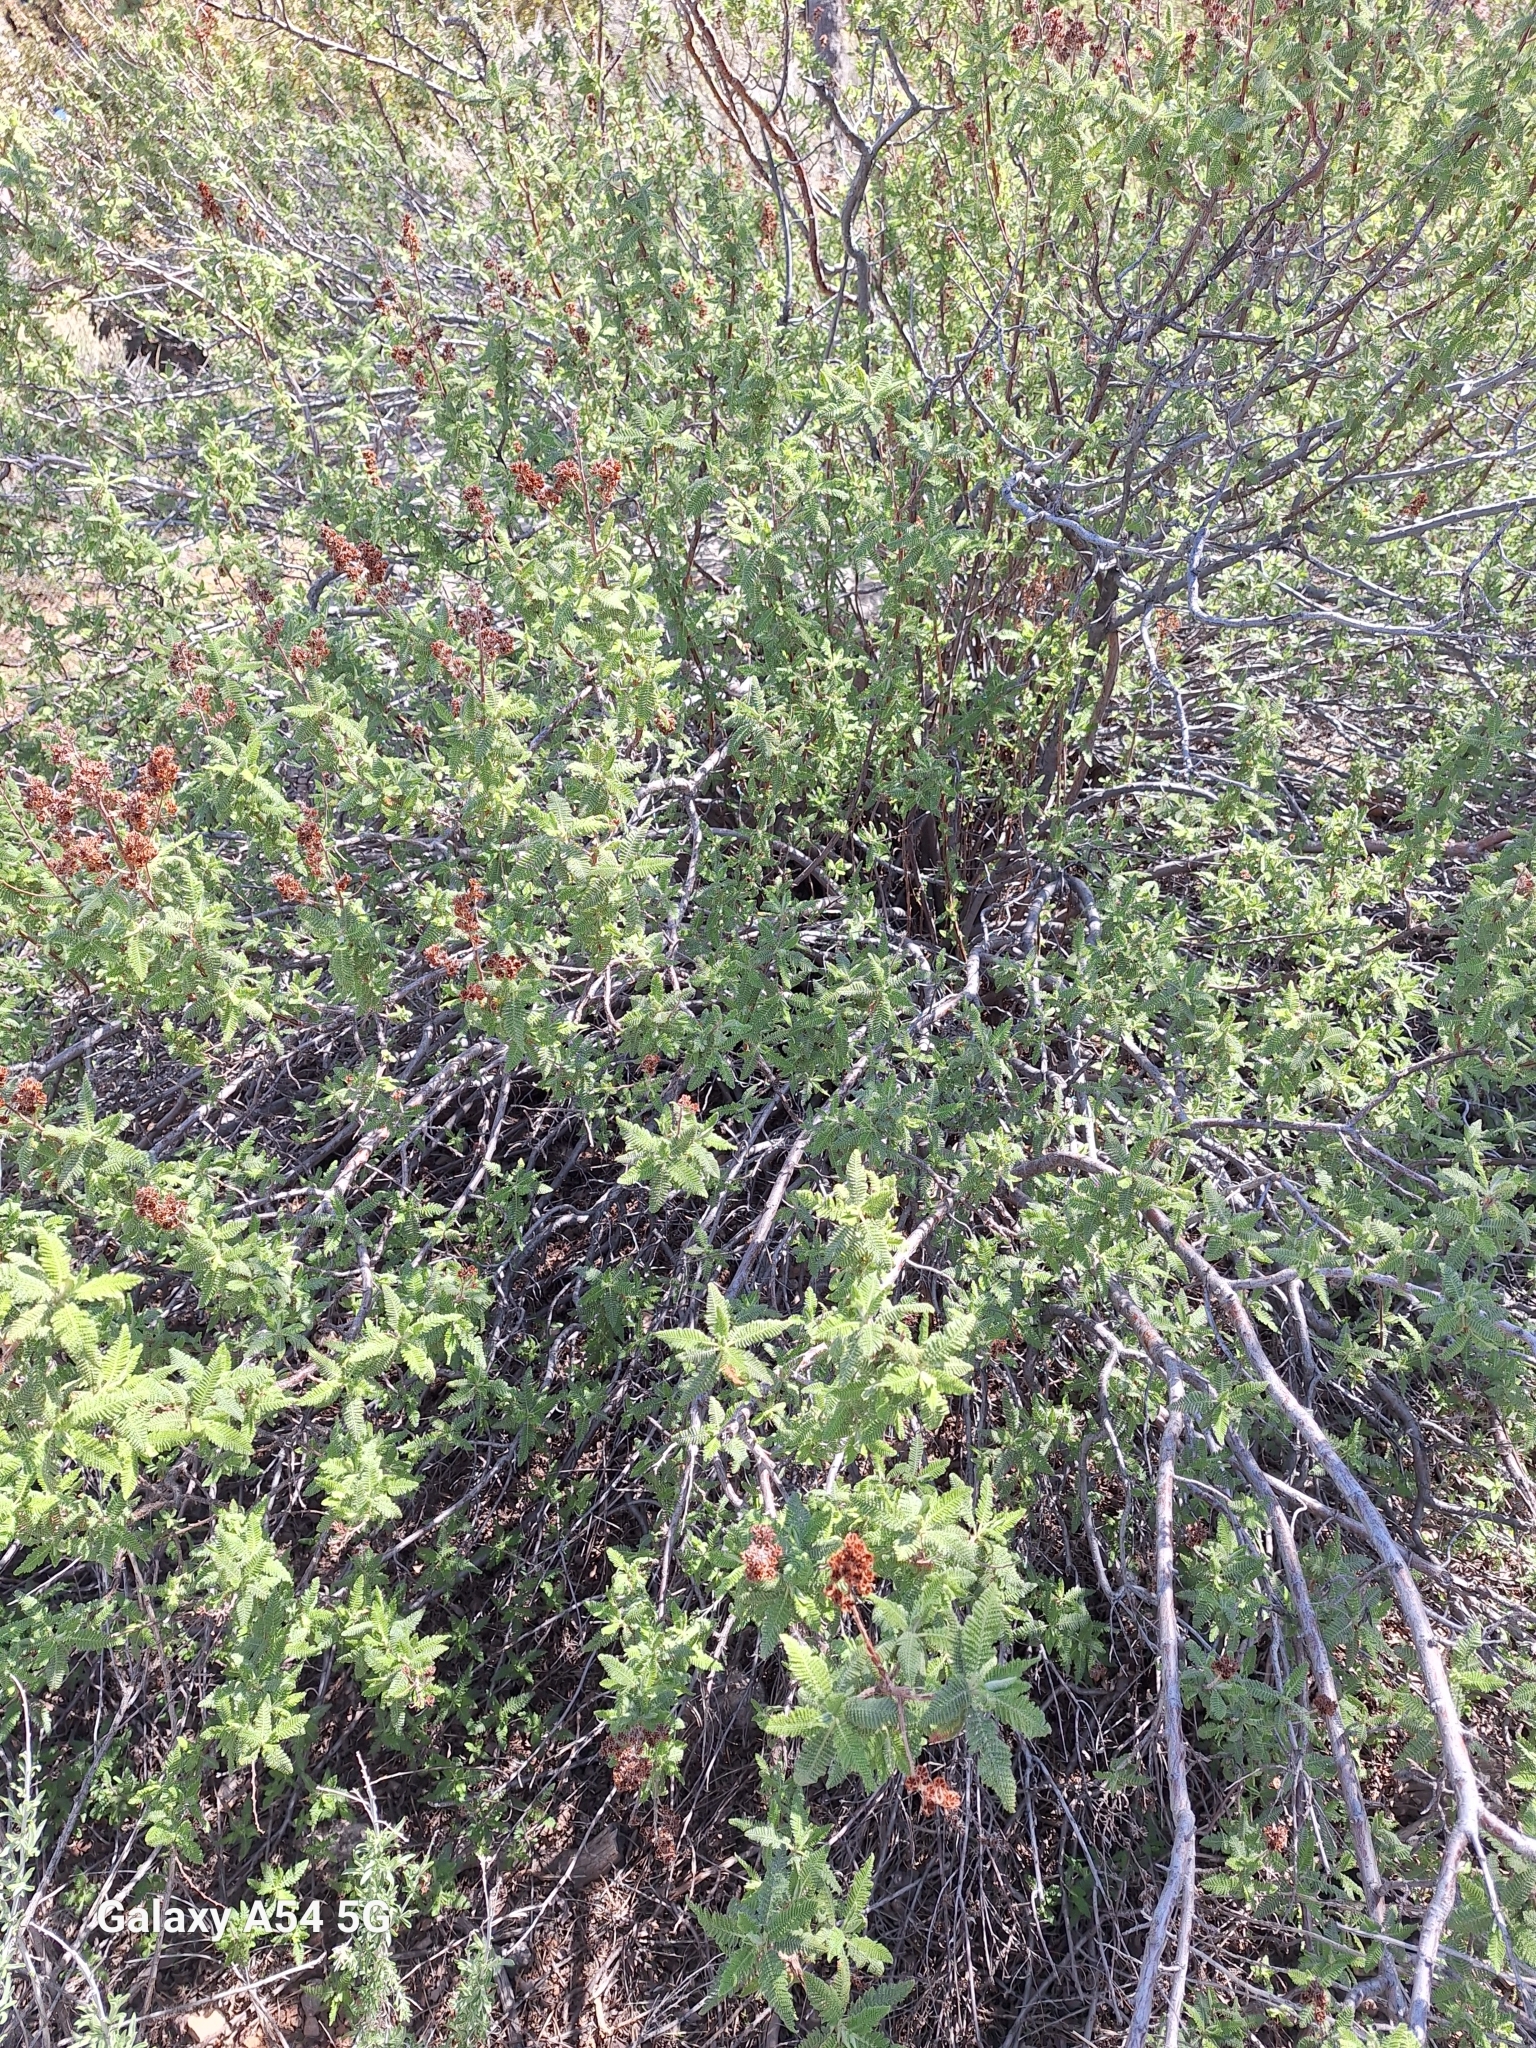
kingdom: Plantae
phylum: Tracheophyta
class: Magnoliopsida
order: Rosales
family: Rosaceae
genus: Chamaebatiaria
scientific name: Chamaebatiaria millefolium
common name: Fernbush
